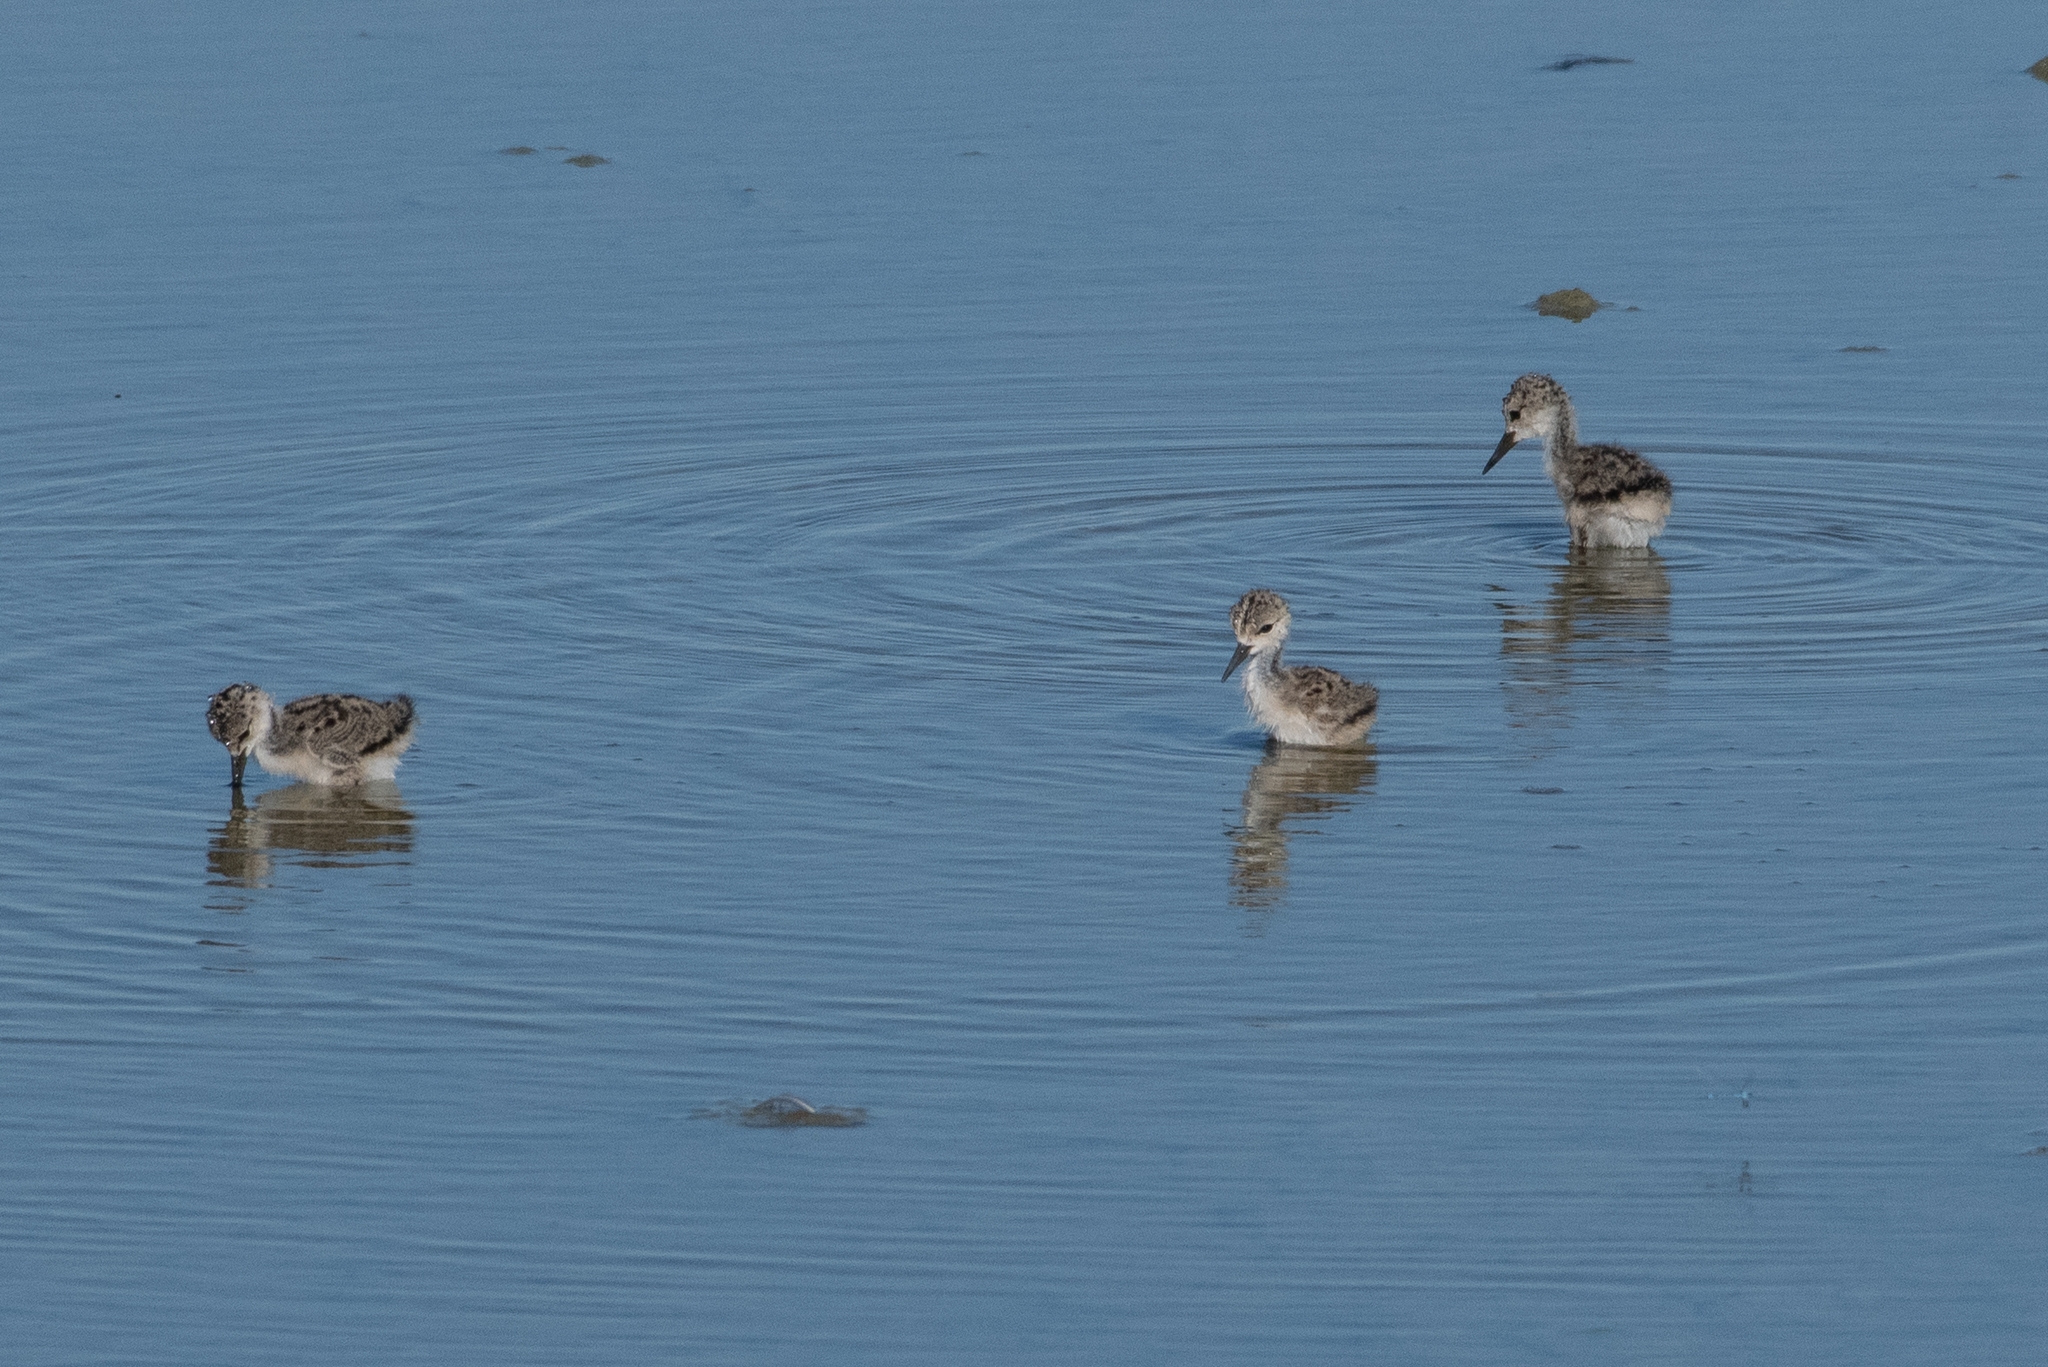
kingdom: Animalia
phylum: Chordata
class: Aves
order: Charadriiformes
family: Recurvirostridae
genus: Himantopus
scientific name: Himantopus mexicanus
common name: Black-necked stilt
